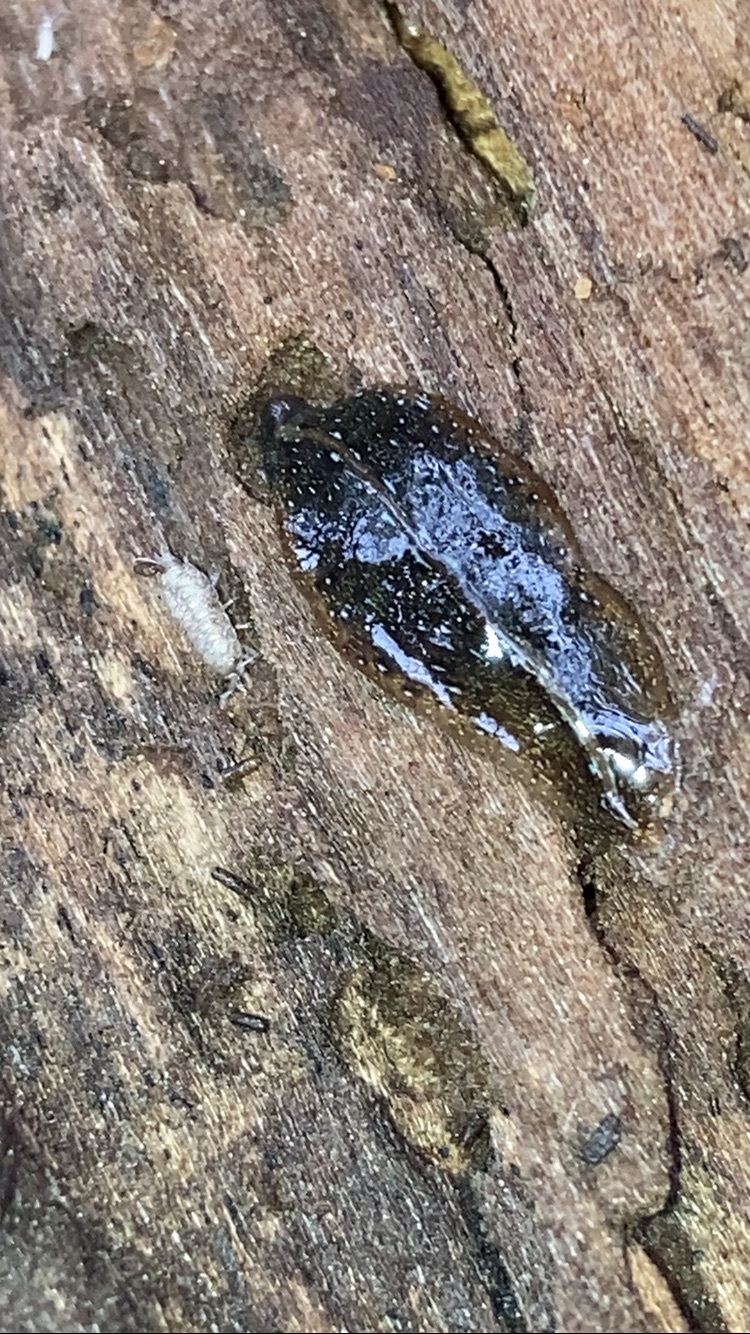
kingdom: Animalia
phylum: Platyhelminthes
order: Tricladida
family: Geoplanidae
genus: Newzealandia
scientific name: Newzealandia graffii
